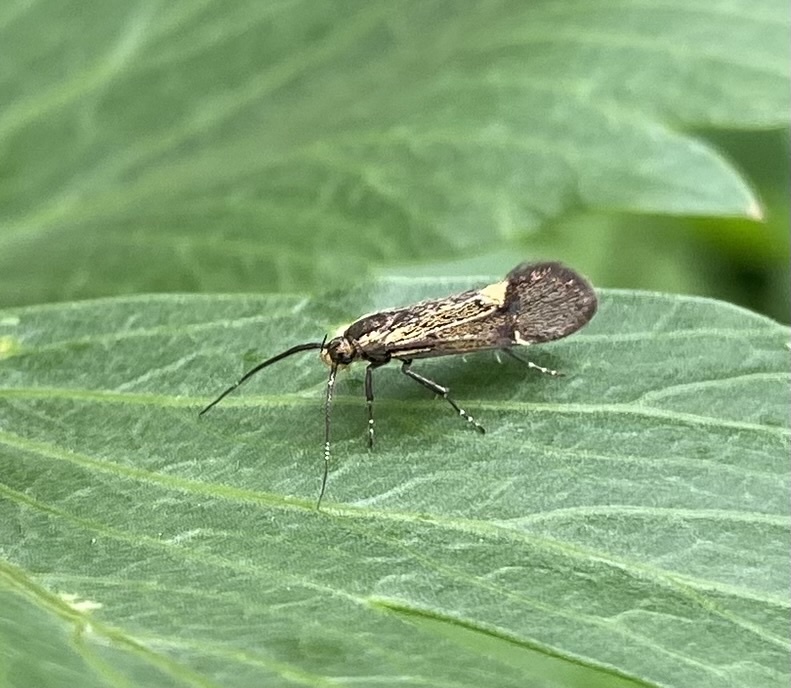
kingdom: Animalia
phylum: Arthropoda
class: Insecta
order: Lepidoptera
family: Oecophoridae
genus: Dafa
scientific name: Dafa Esperia sulphurella
